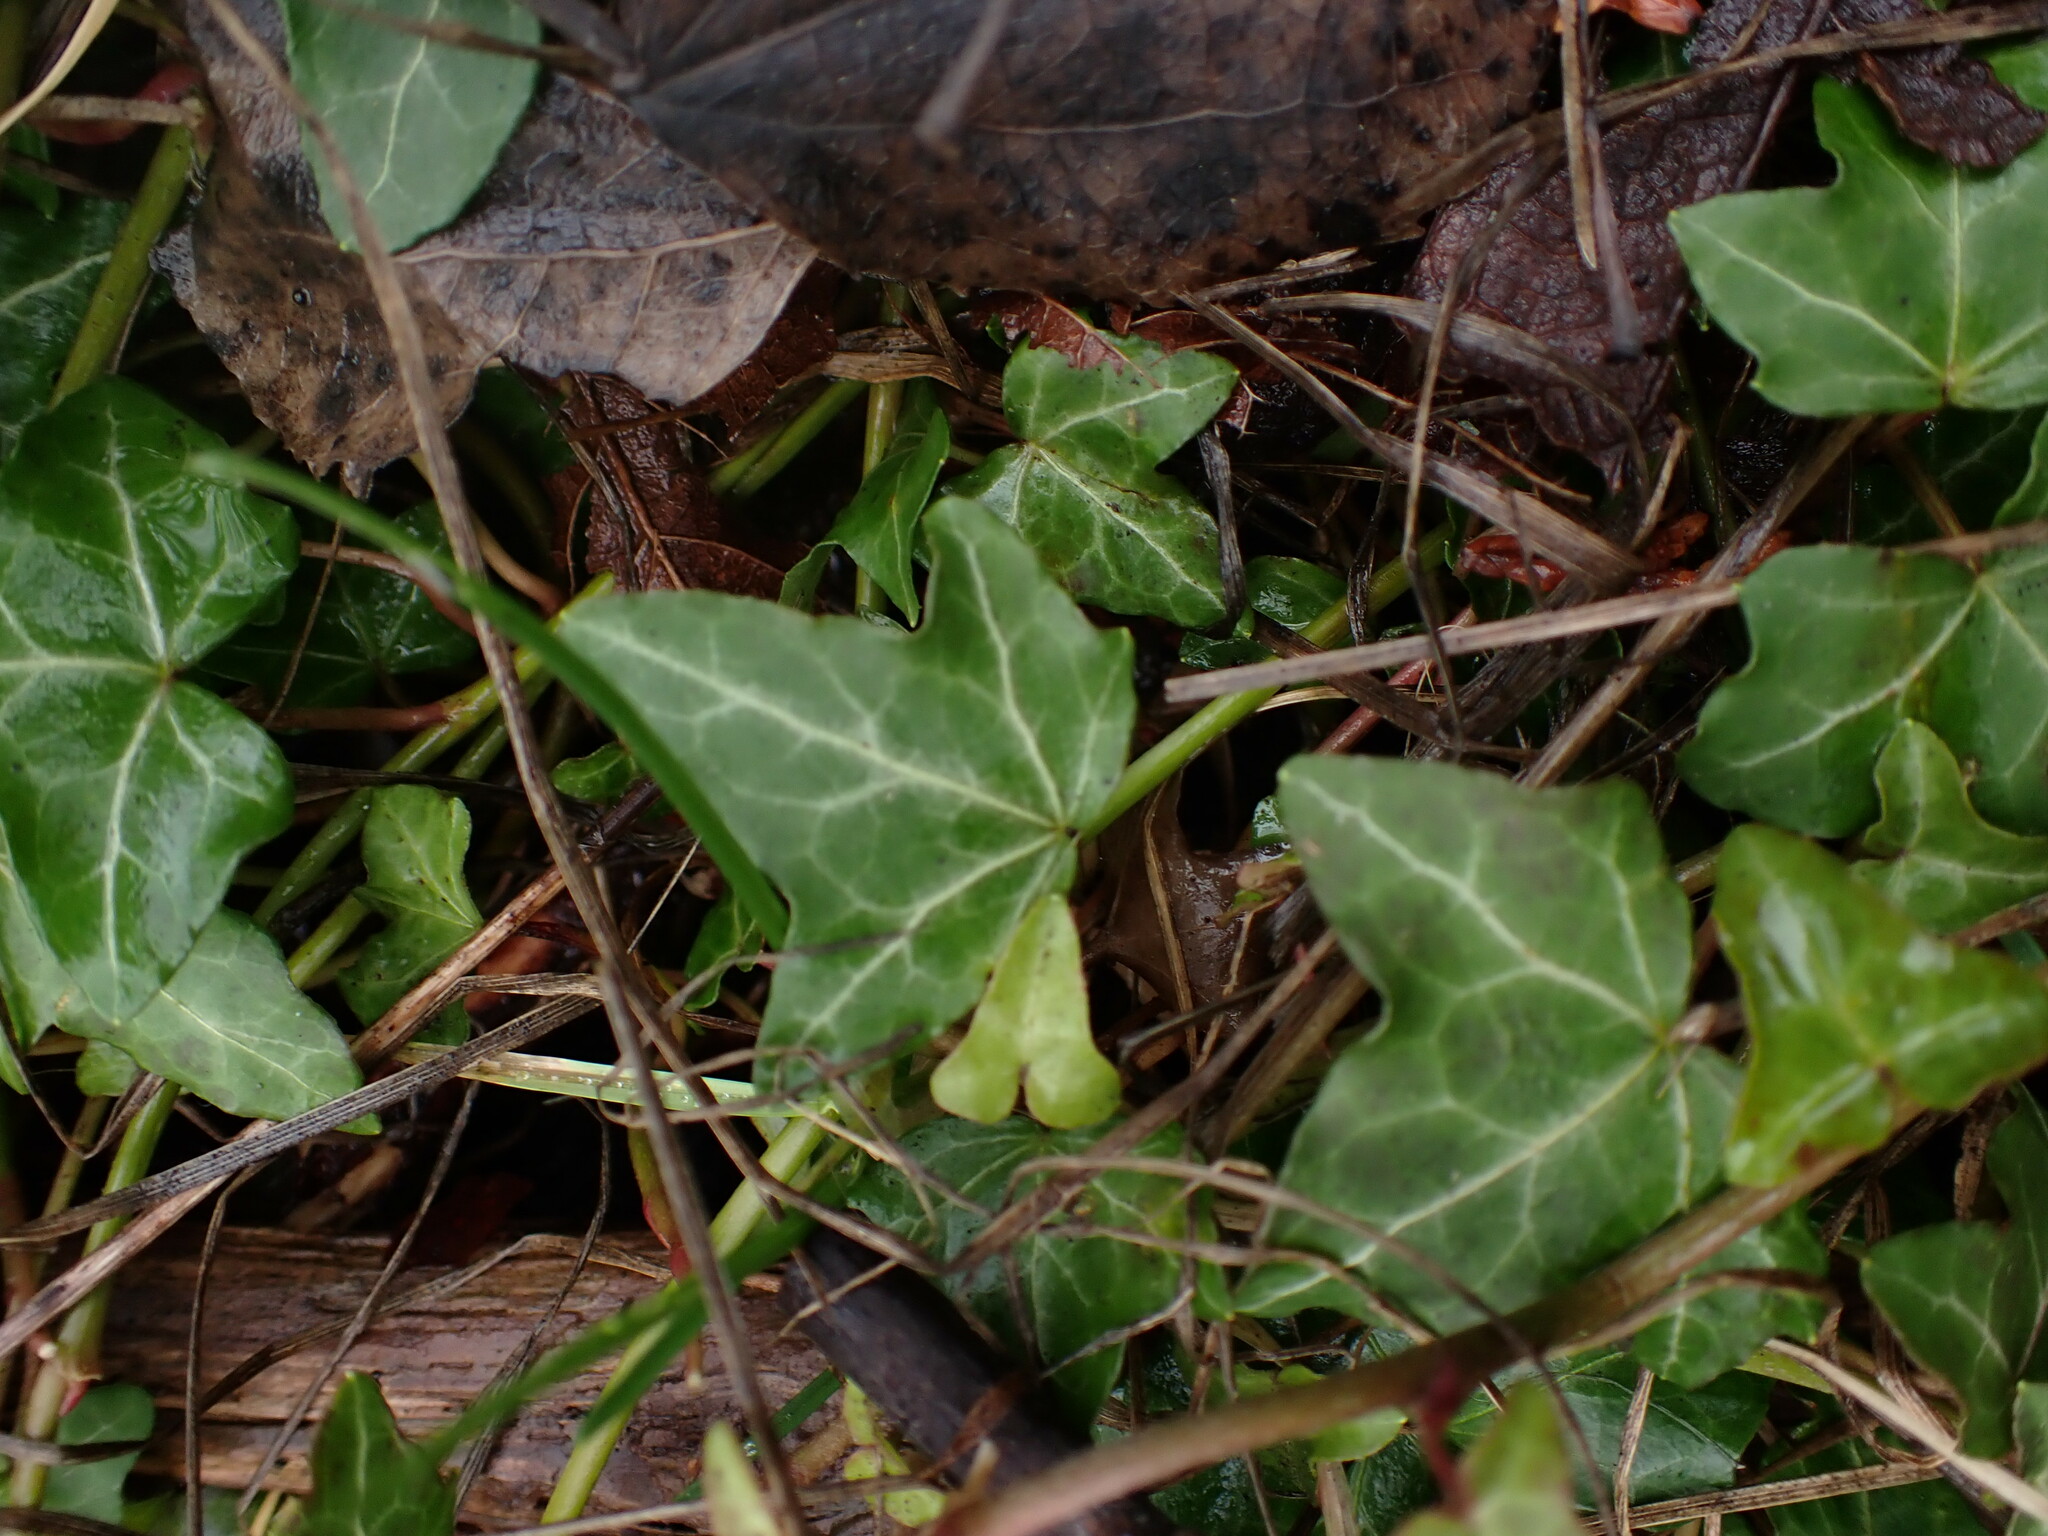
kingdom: Plantae
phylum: Tracheophyta
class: Magnoliopsida
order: Apiales
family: Araliaceae
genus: Hedera
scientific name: Hedera helix
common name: Ivy
